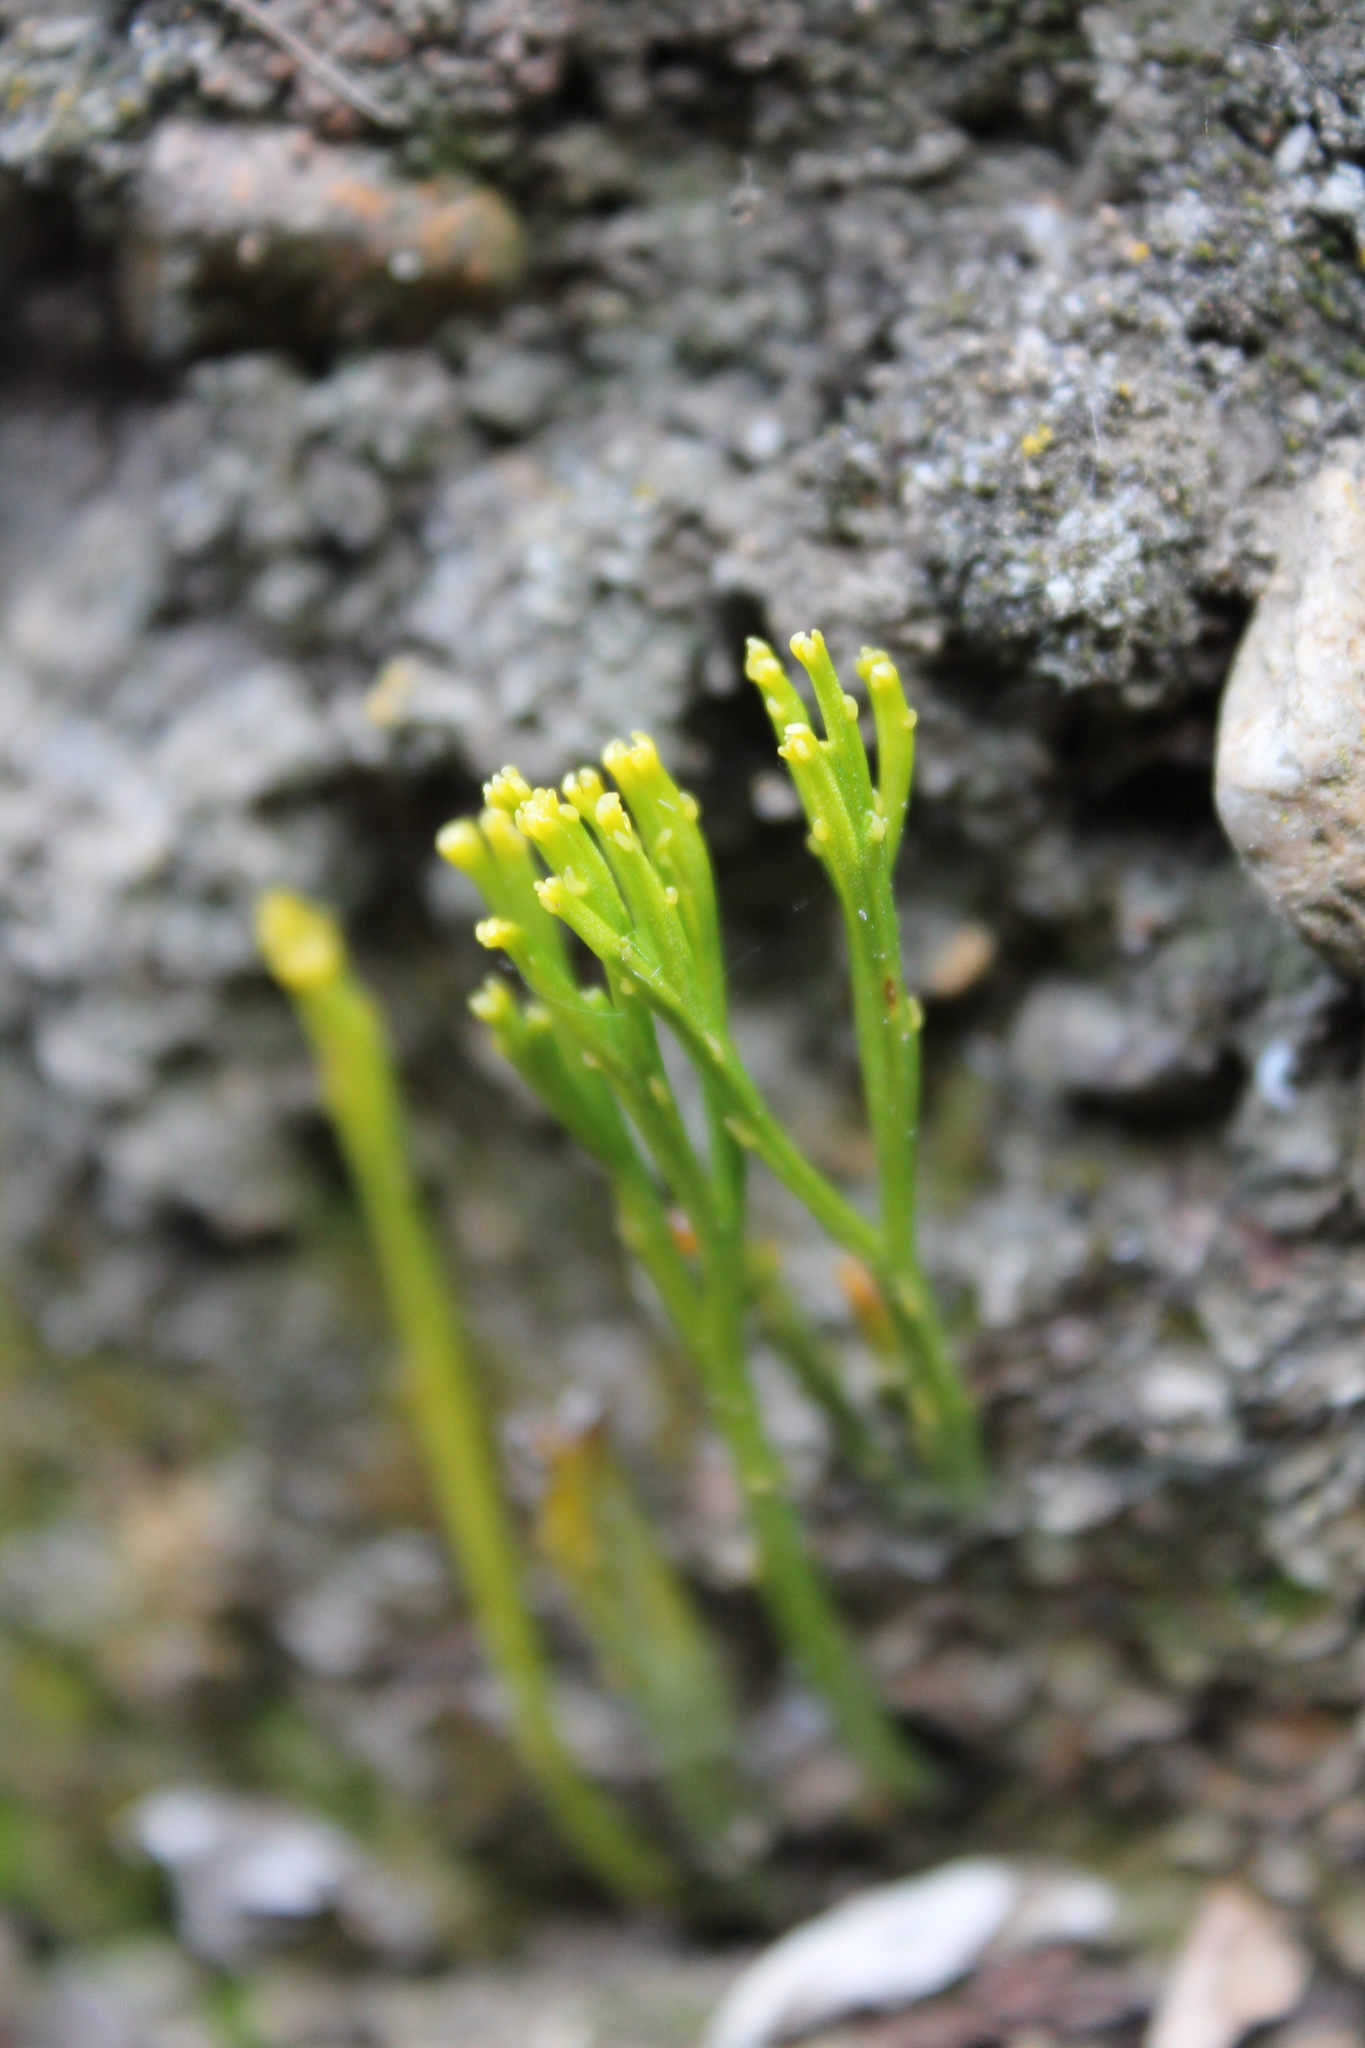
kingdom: Plantae
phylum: Tracheophyta
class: Polypodiopsida
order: Psilotales
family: Psilotaceae
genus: Psilotum
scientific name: Psilotum nudum
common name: Skeleton fork fern
